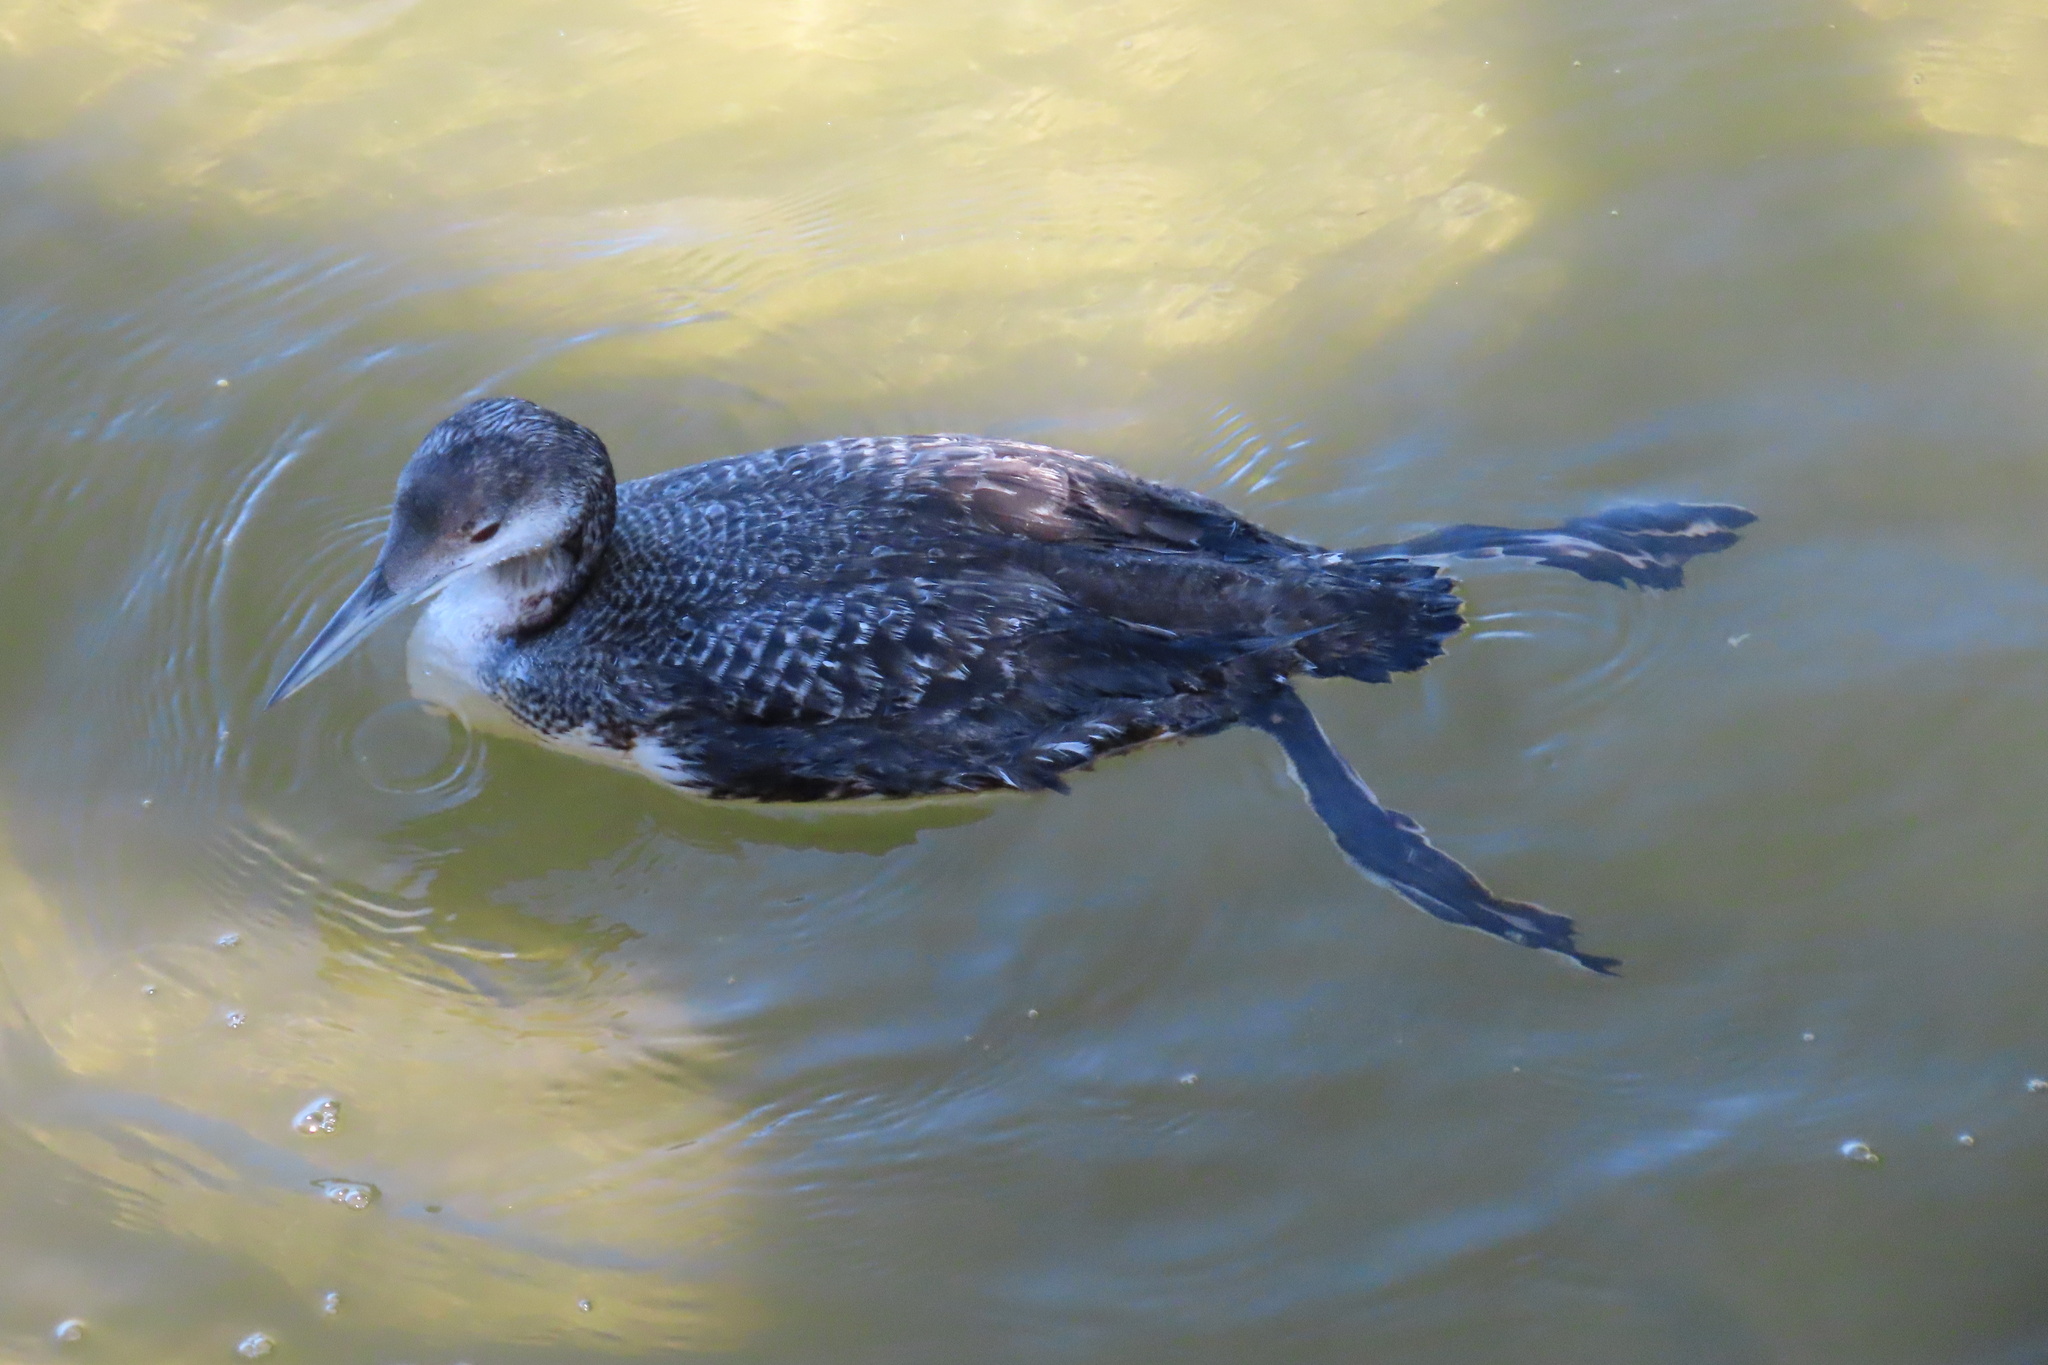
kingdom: Animalia
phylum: Chordata
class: Aves
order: Gaviiformes
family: Gaviidae
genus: Gavia
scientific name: Gavia immer
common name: Common loon
